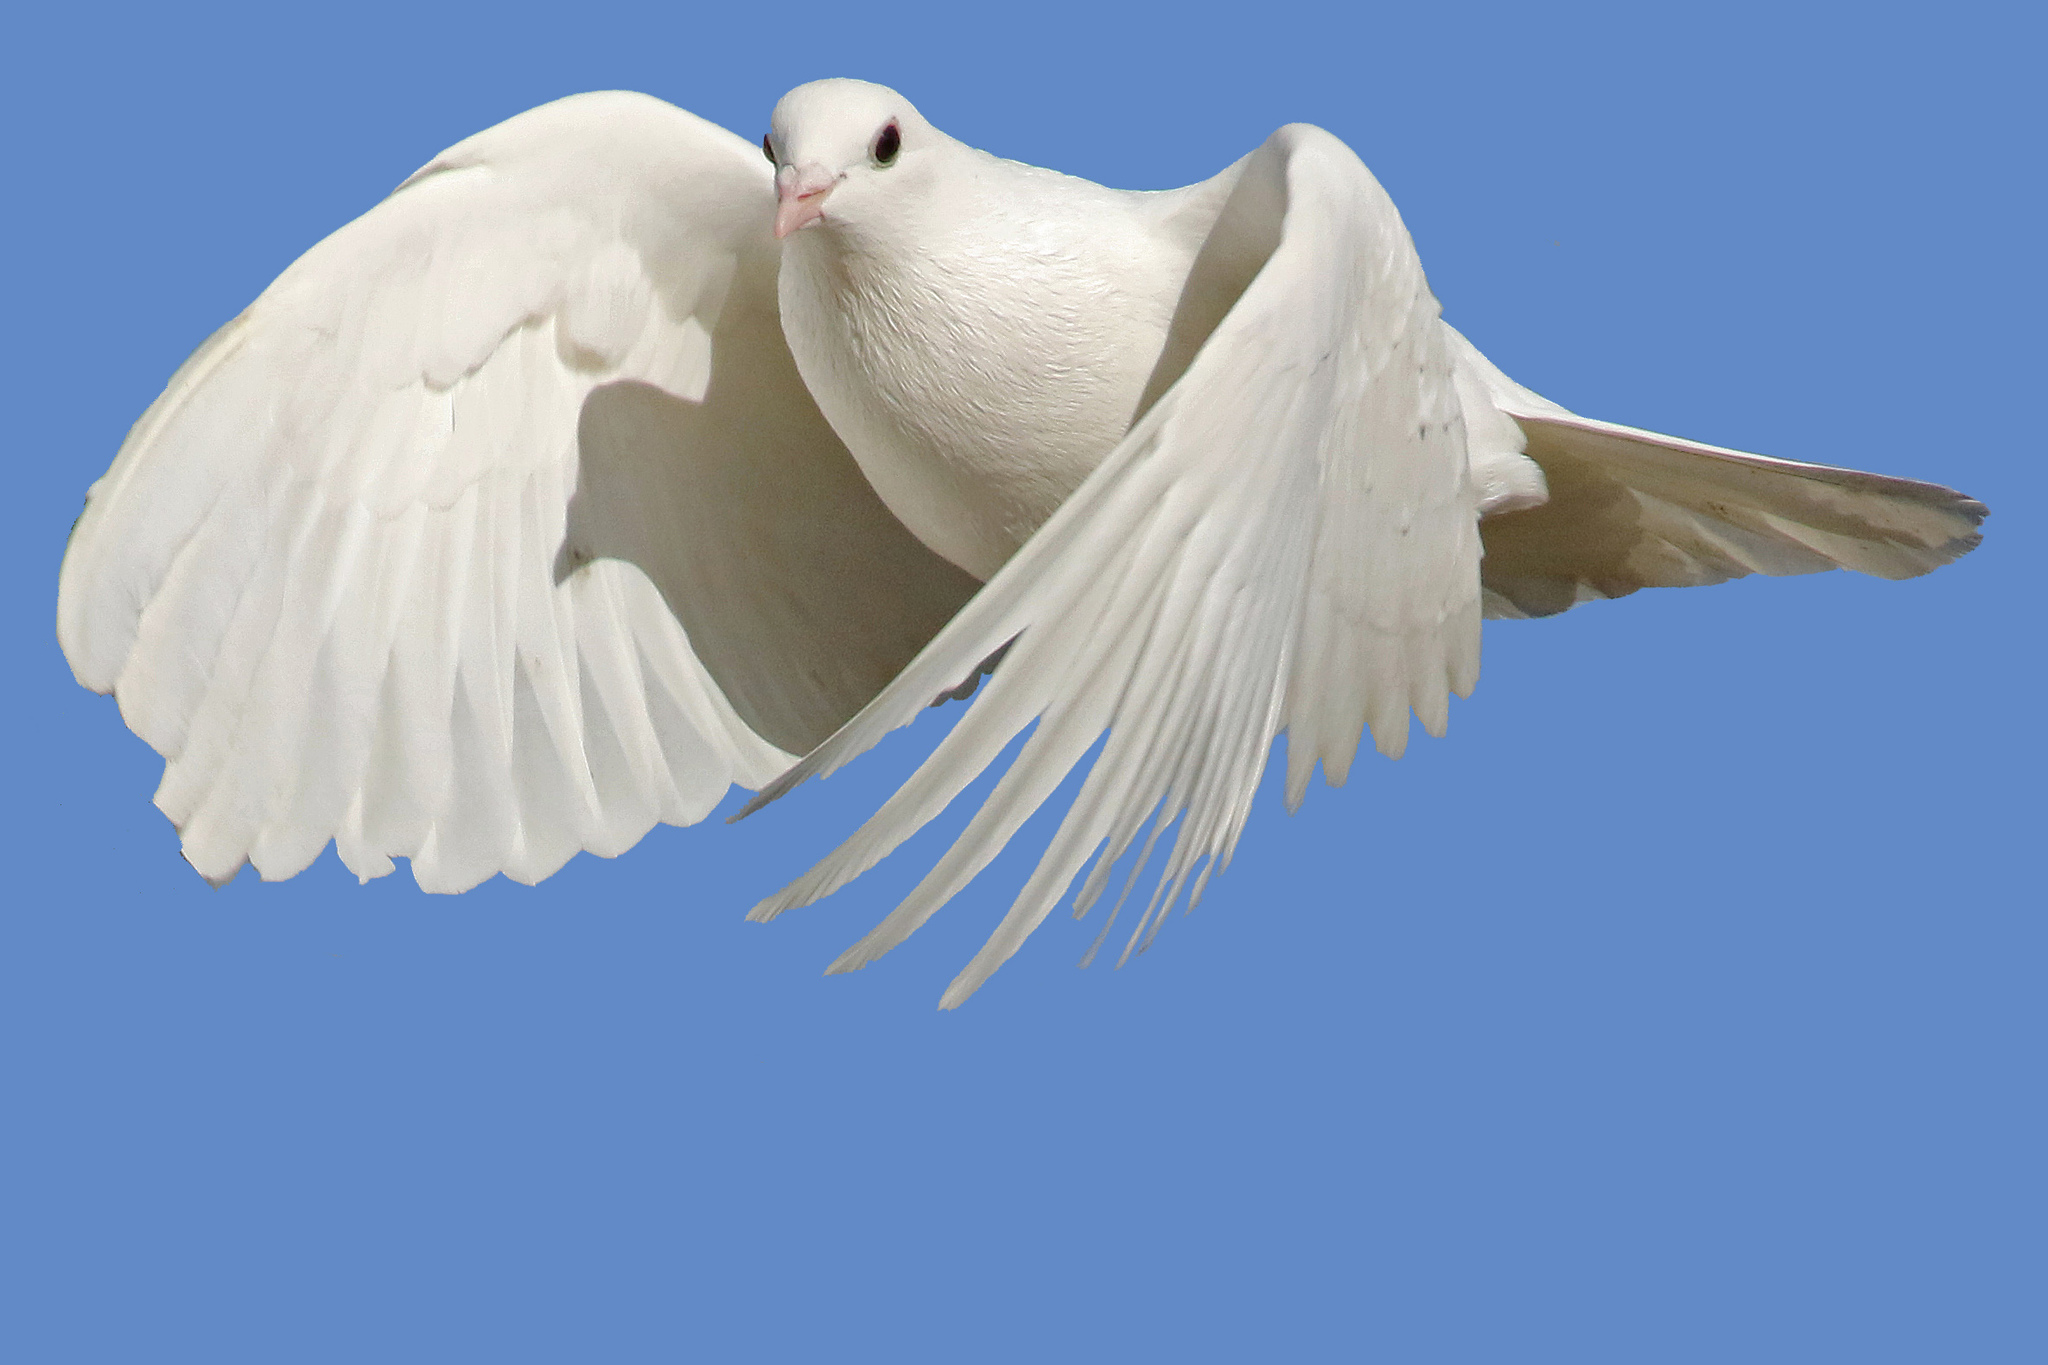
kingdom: Animalia
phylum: Chordata
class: Aves
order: Columbiformes
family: Columbidae
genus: Columba
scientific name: Columba livia
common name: Rock pigeon
